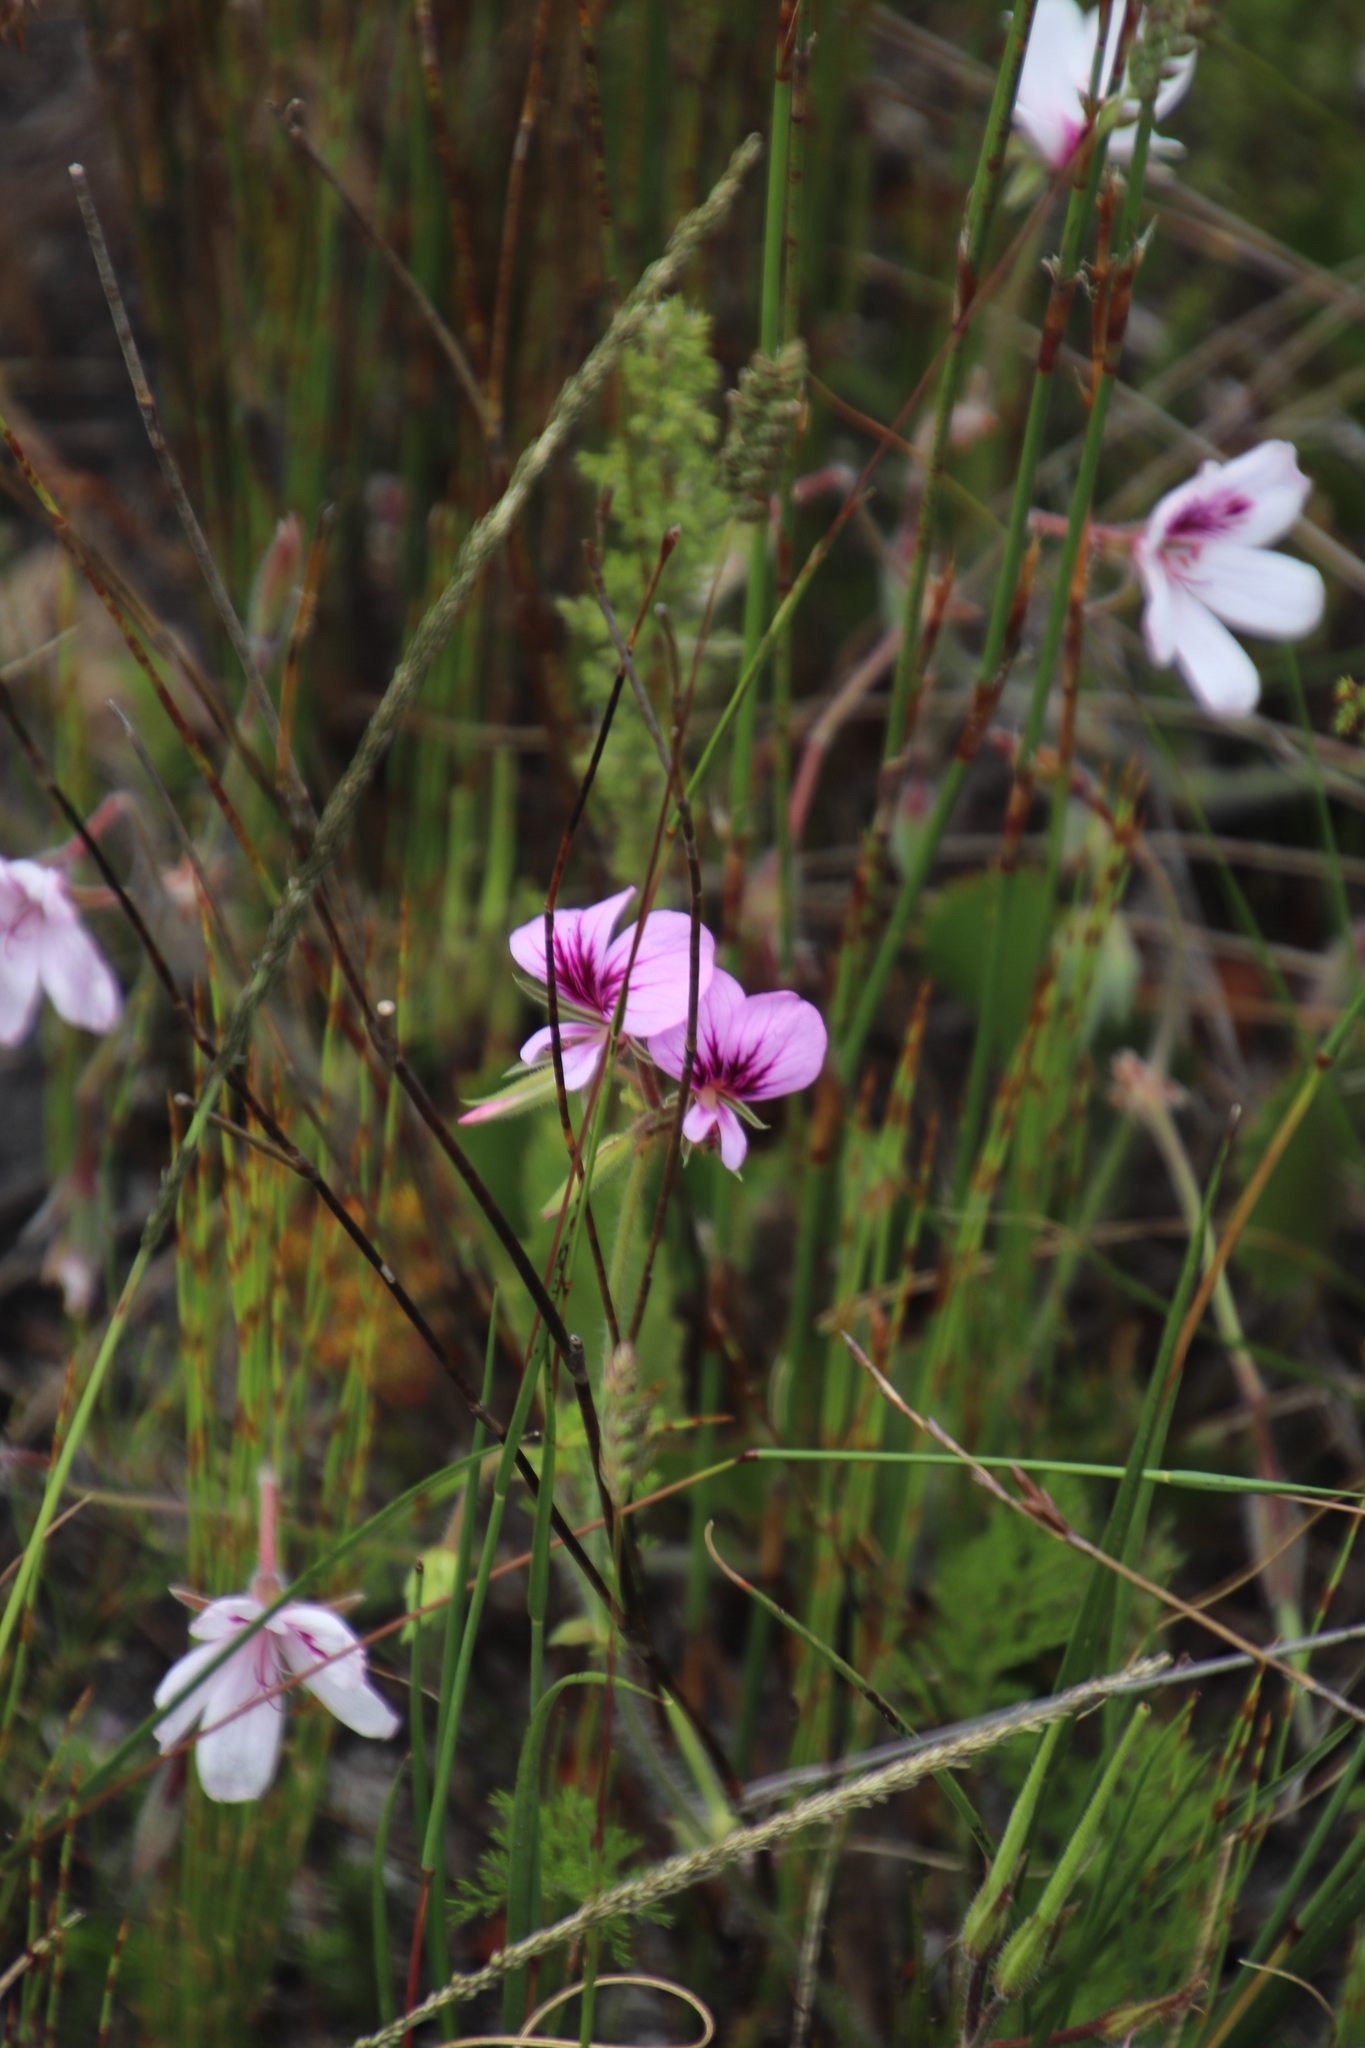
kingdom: Plantae
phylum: Tracheophyta
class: Magnoliopsida
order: Geraniales
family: Geraniaceae
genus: Pelargonium
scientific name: Pelargonium myrrhifolium
